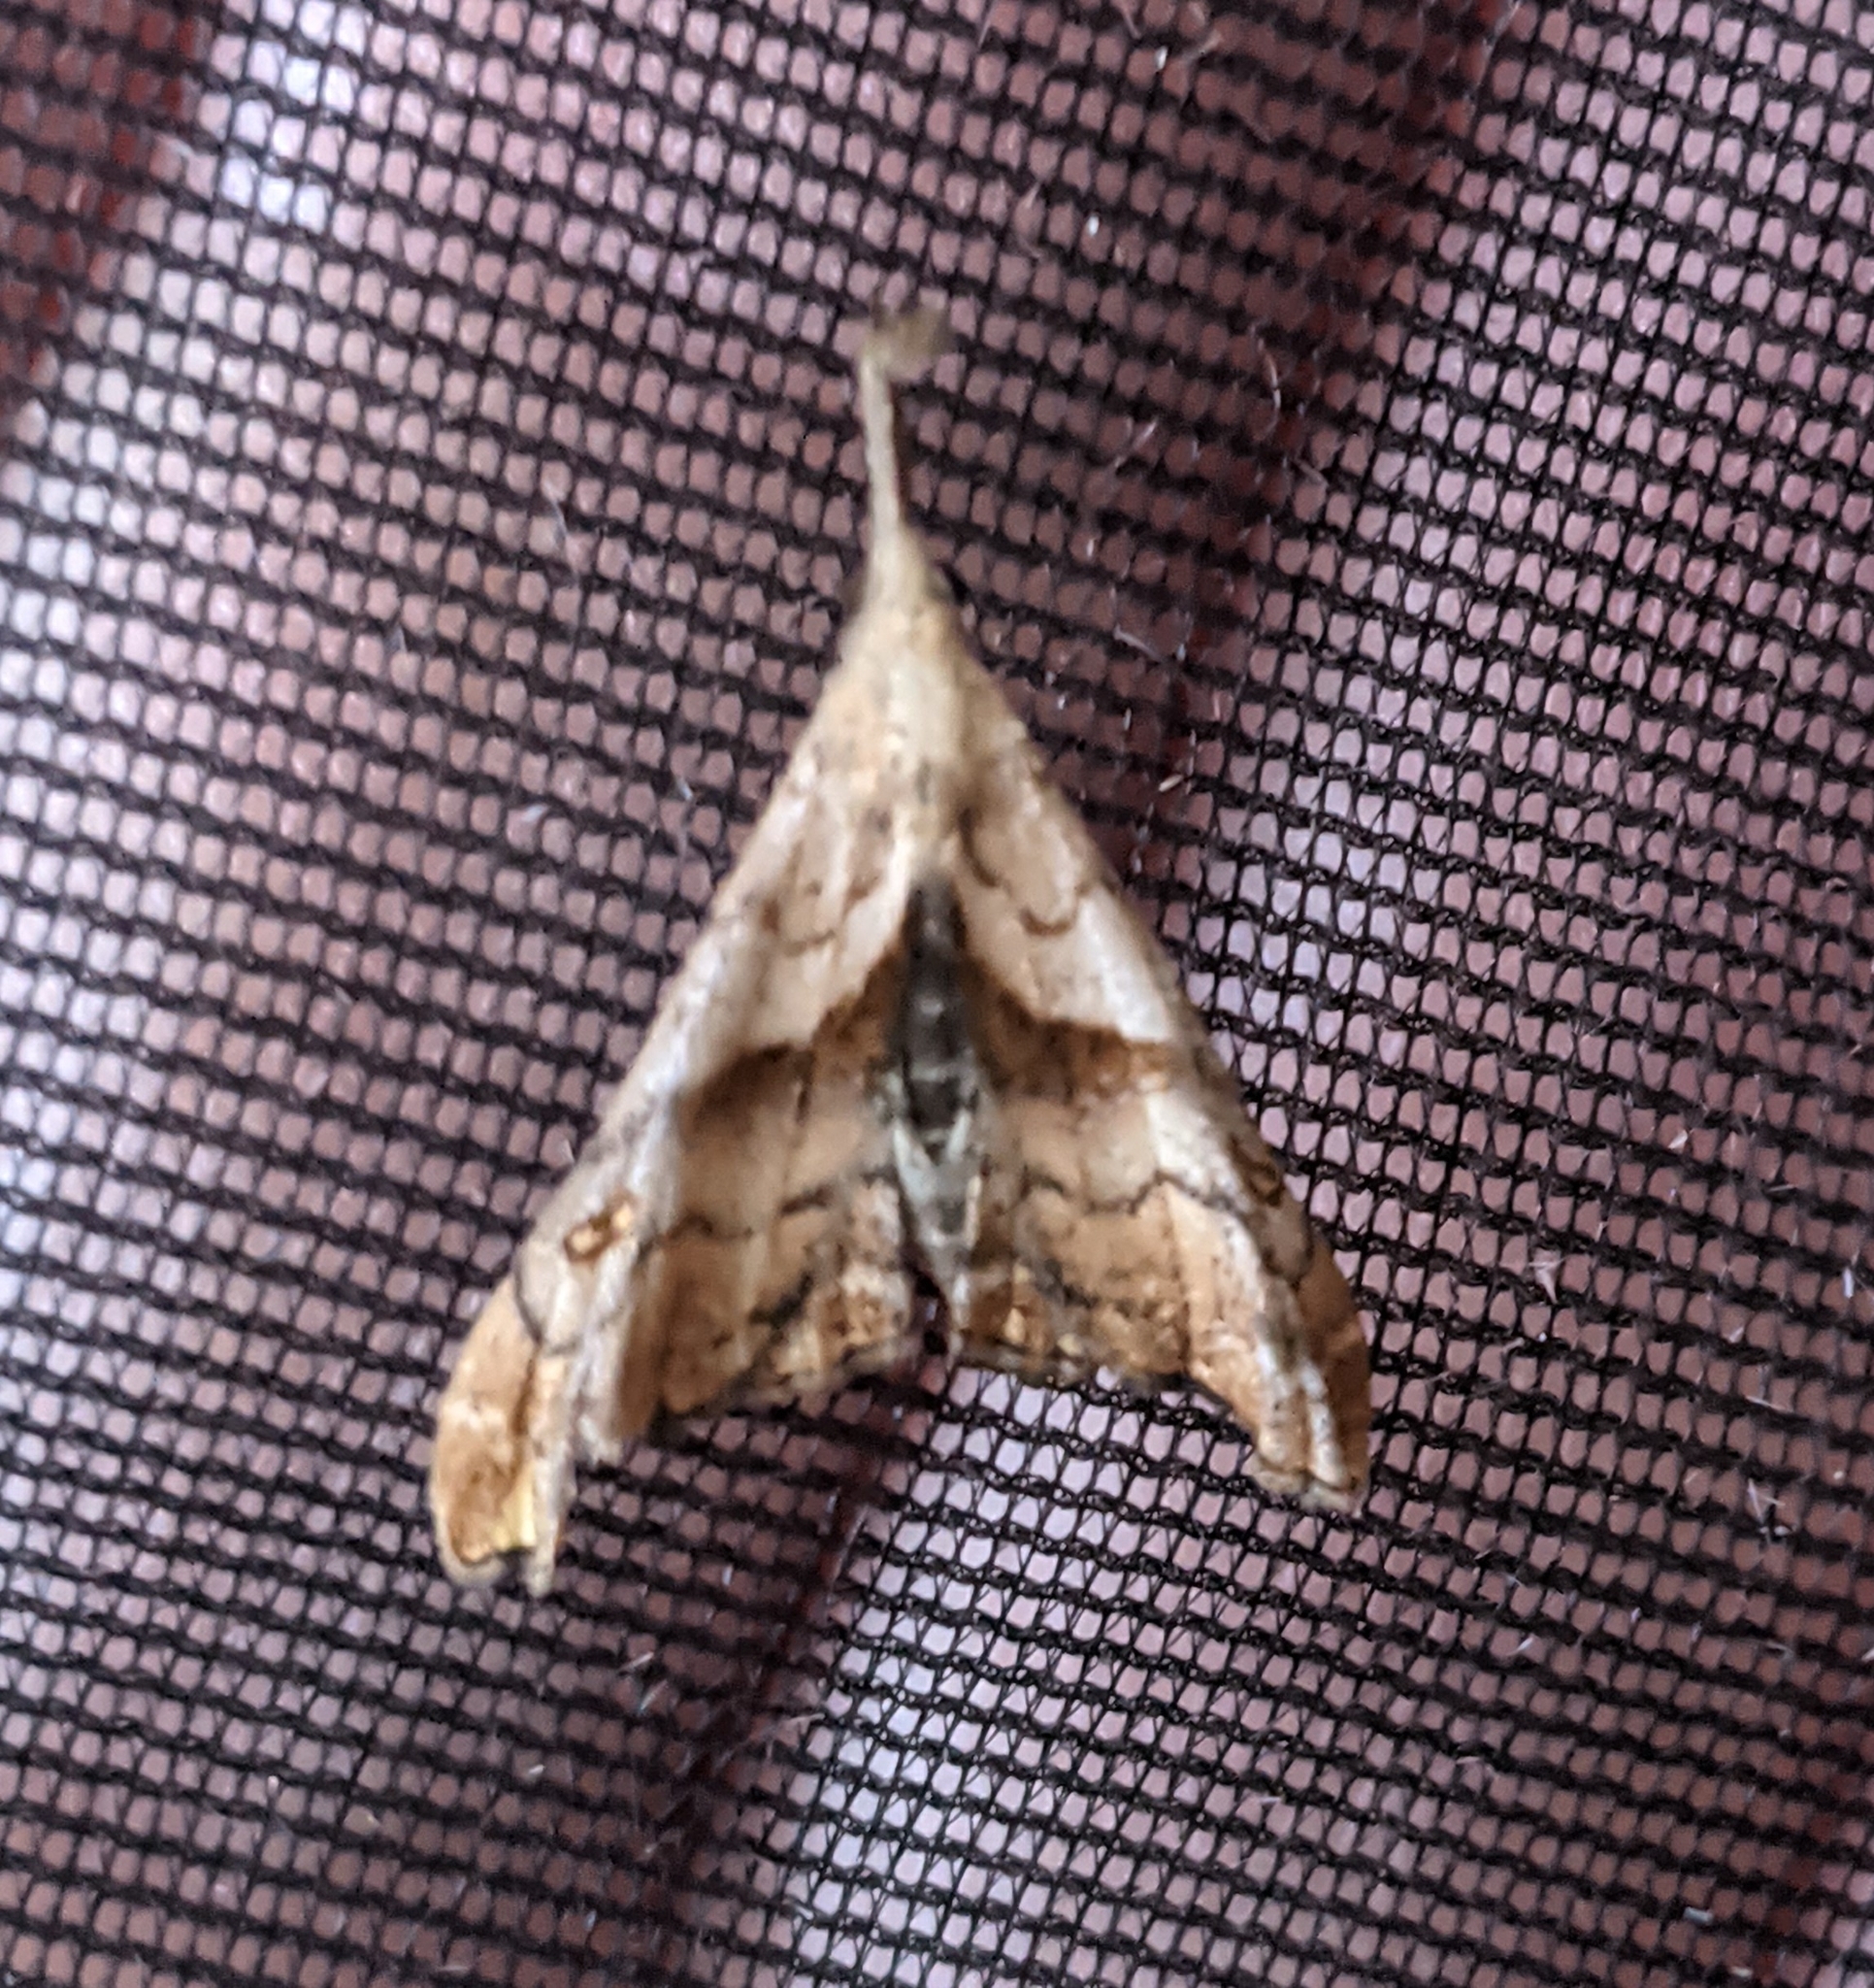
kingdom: Animalia
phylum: Arthropoda
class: Insecta
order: Lepidoptera
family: Erebidae
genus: Palthis
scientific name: Palthis angulalis
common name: Dark-spotted palthis moth
